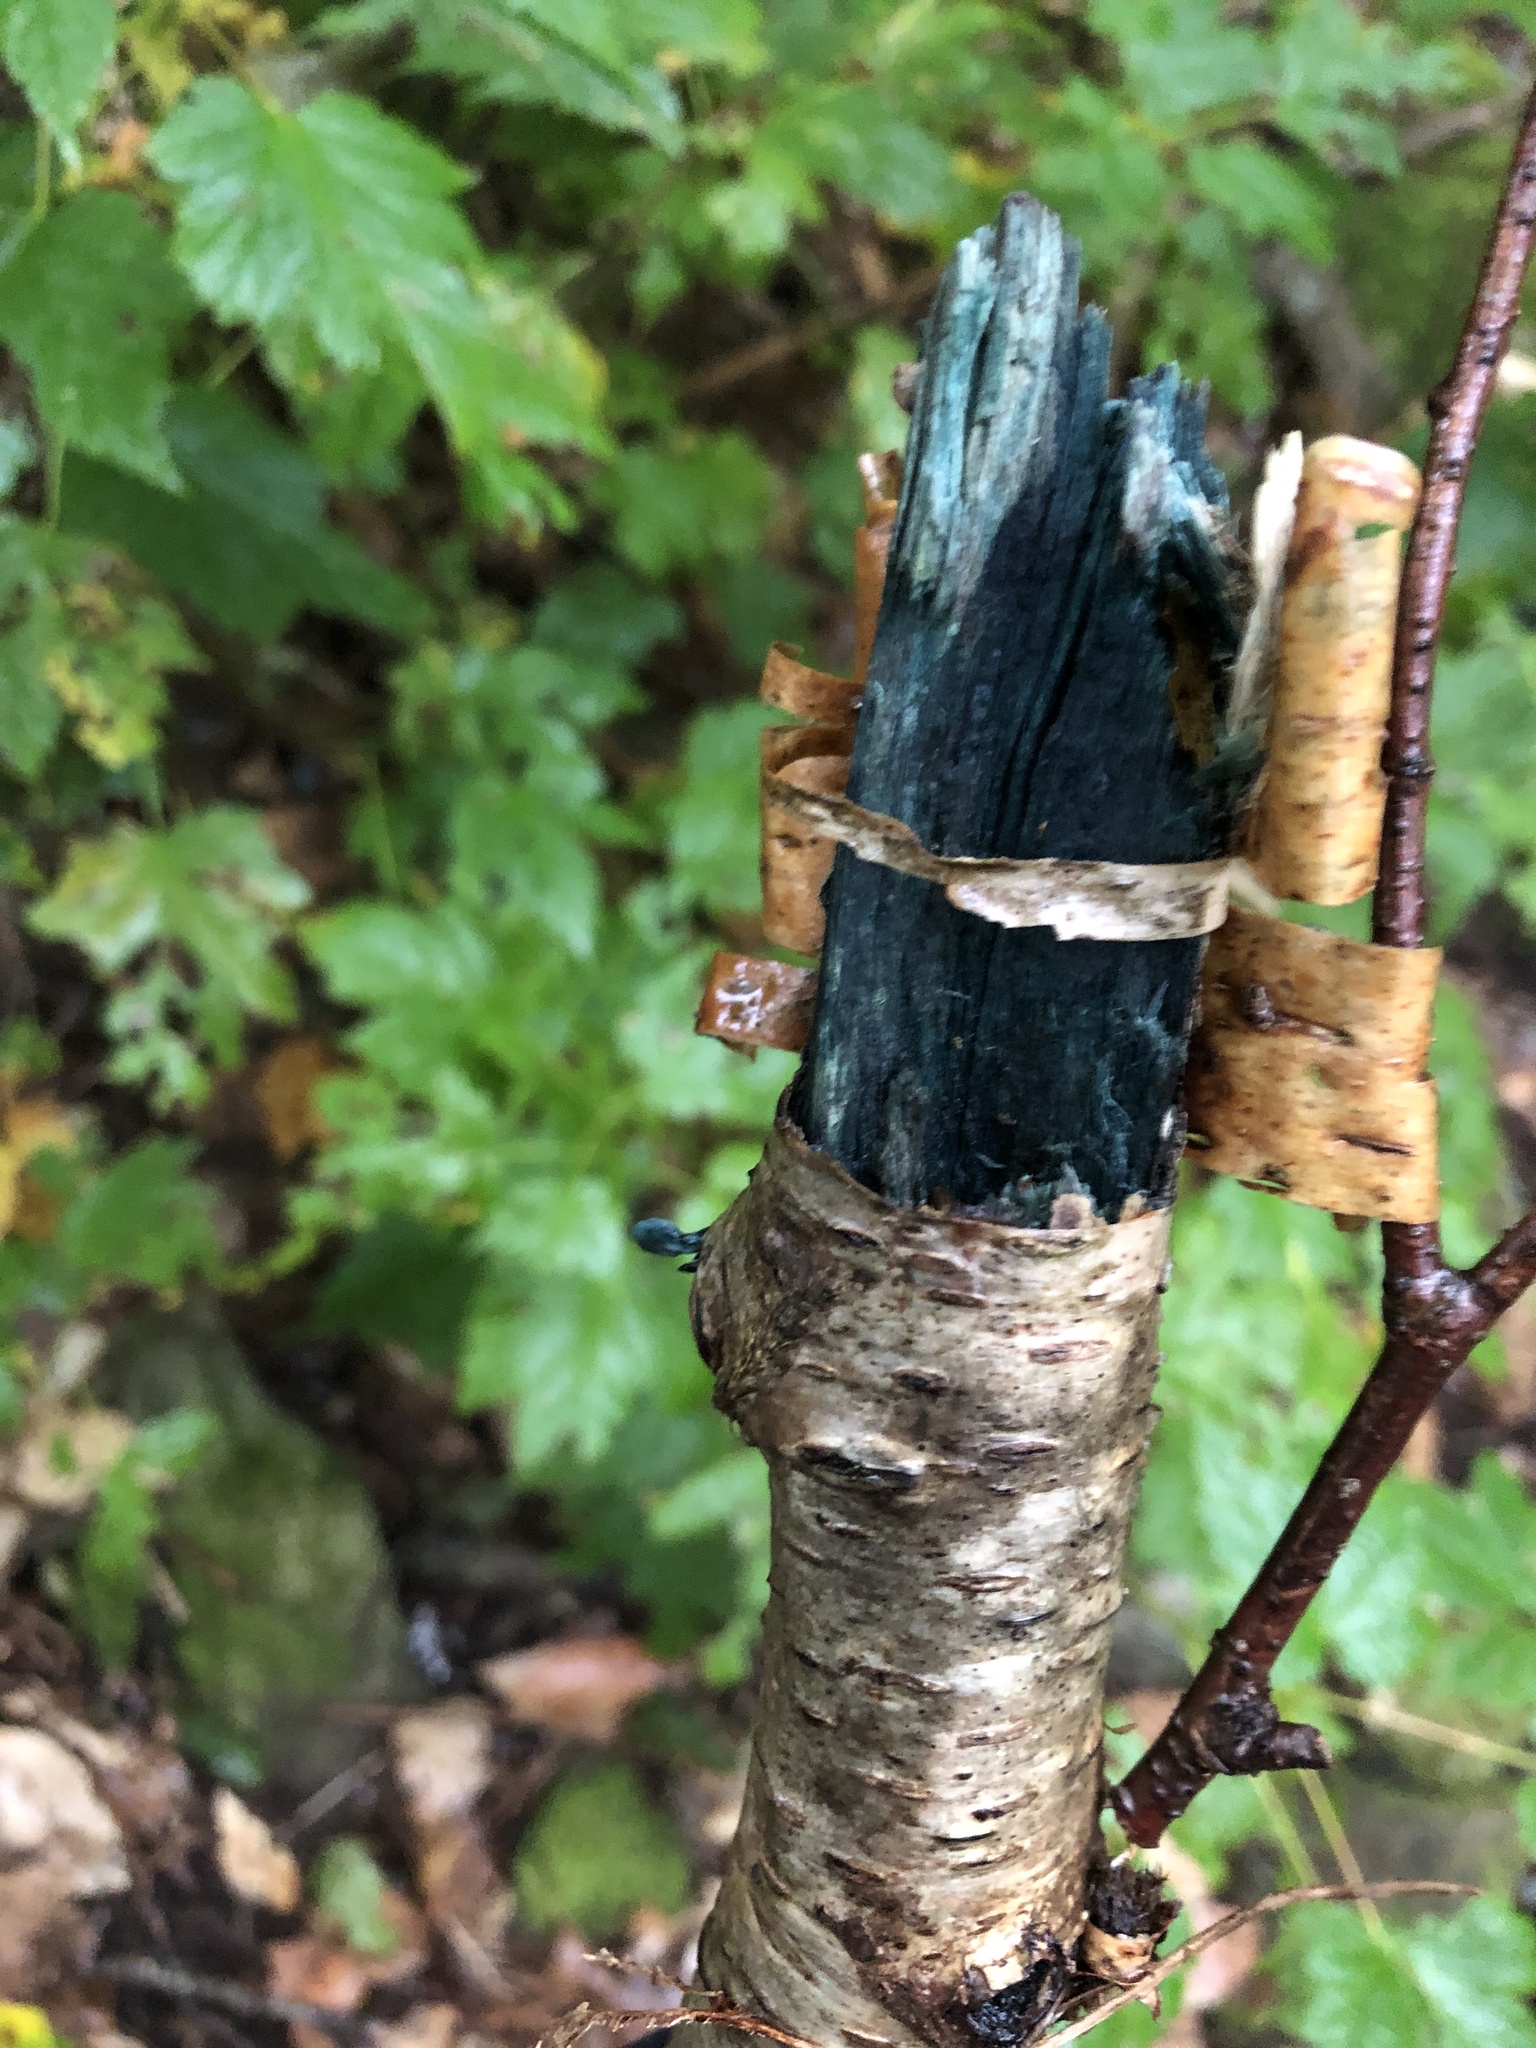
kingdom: Fungi
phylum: Ascomycota
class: Leotiomycetes
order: Helotiales
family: Chlorociboriaceae
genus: Chlorociboria
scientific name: Chlorociboria
